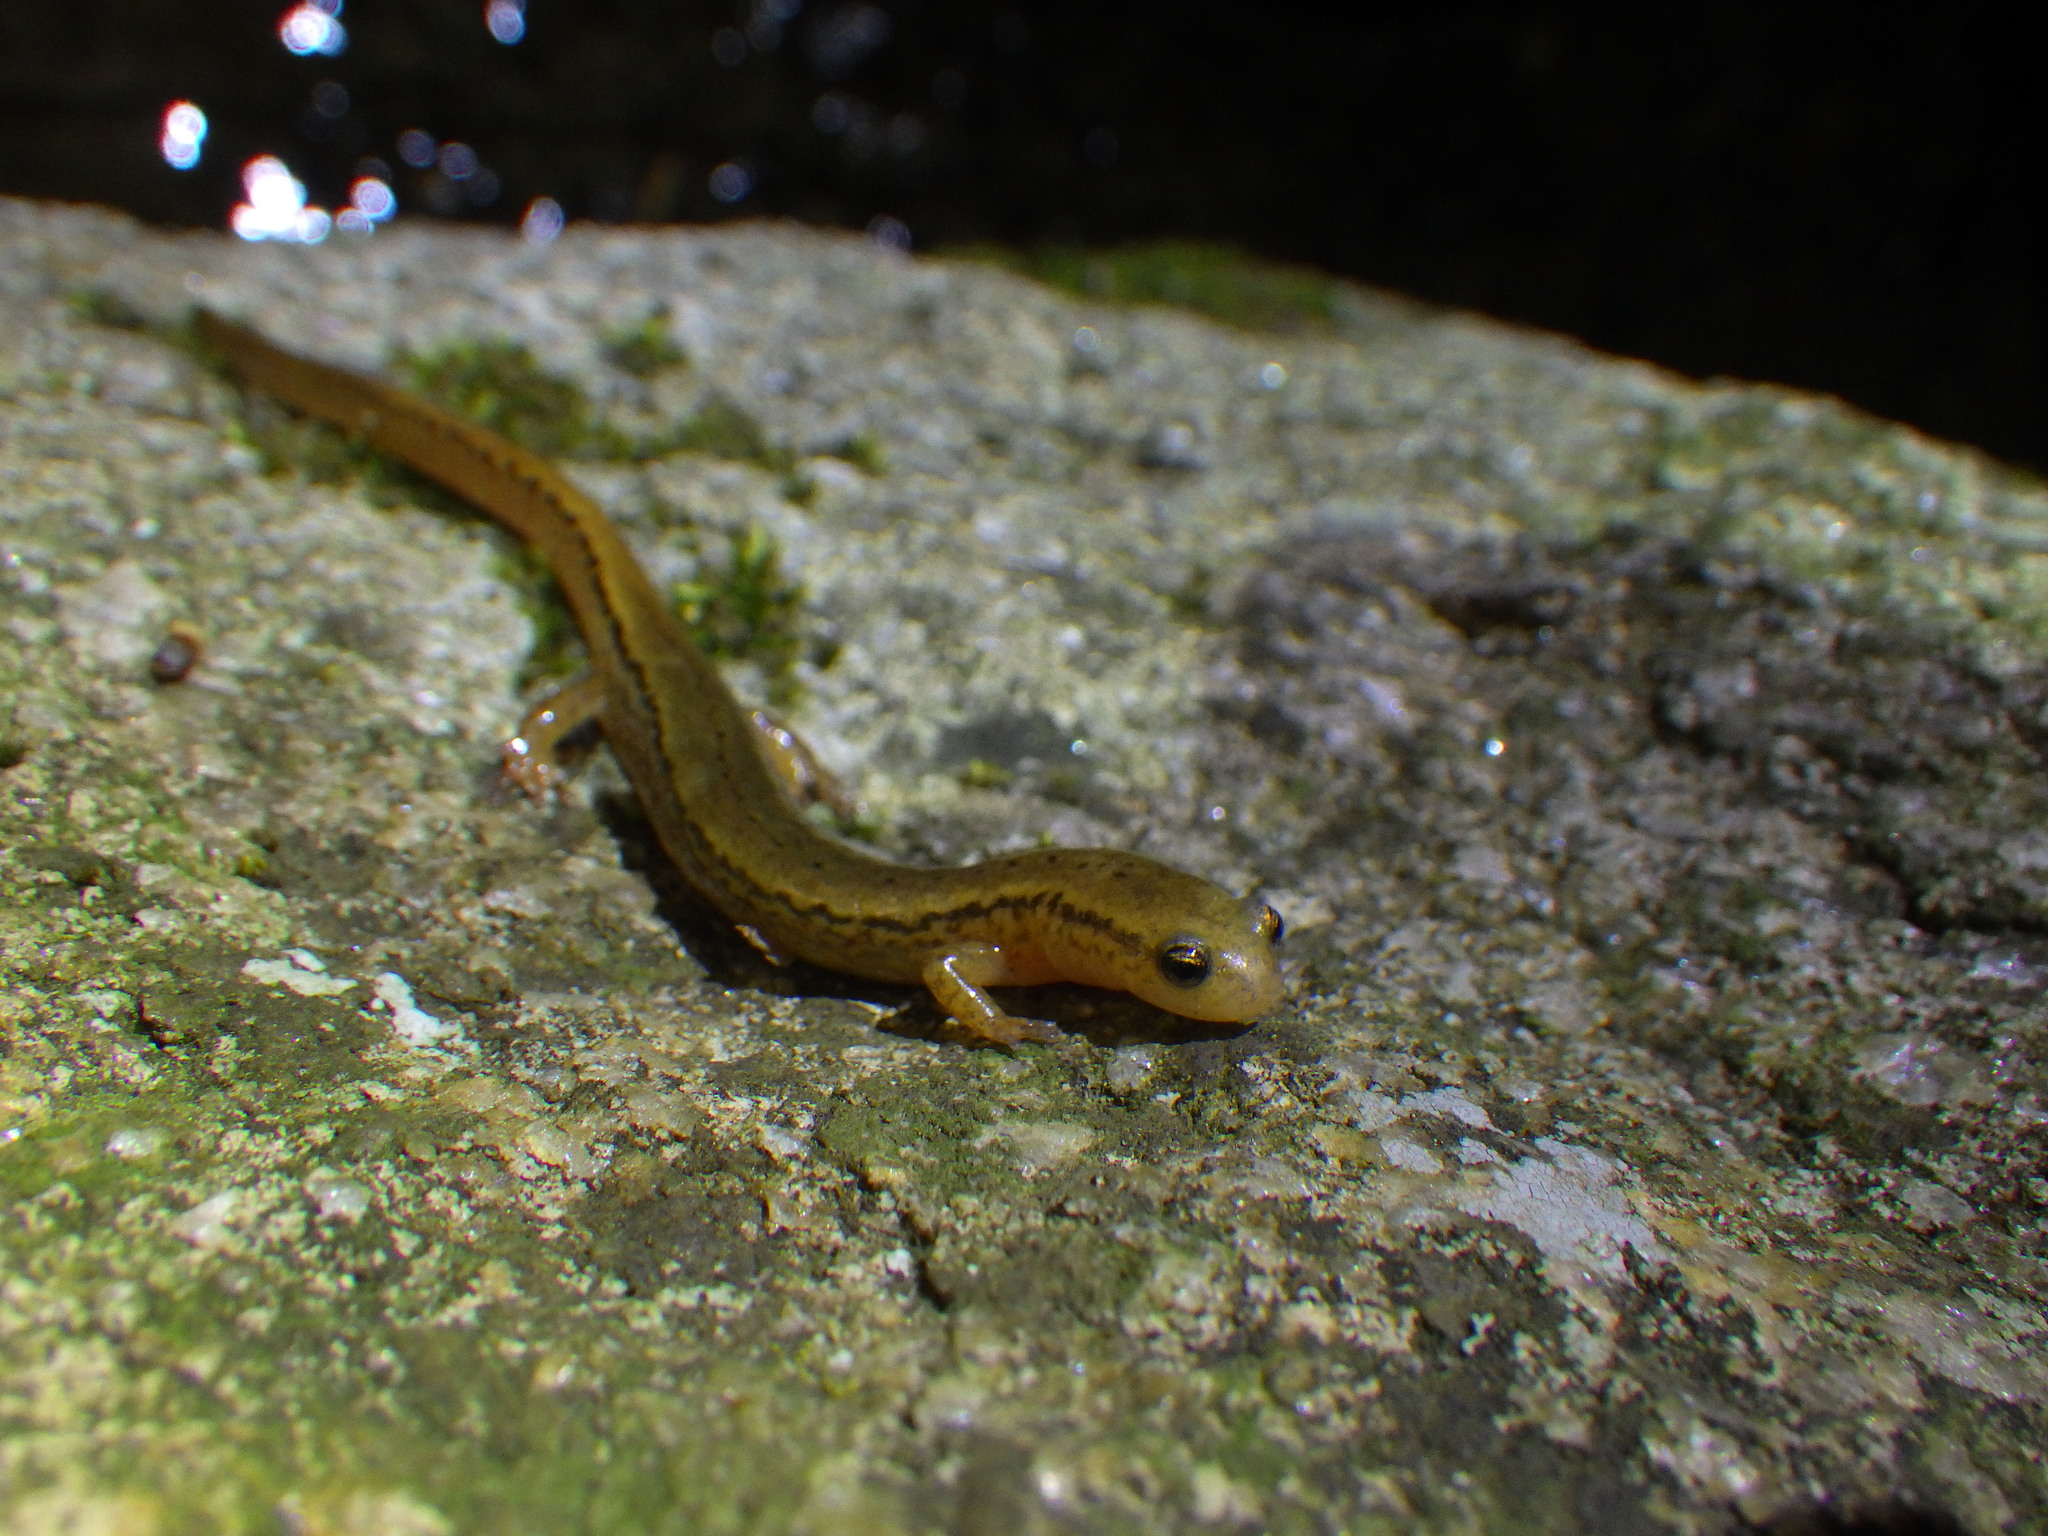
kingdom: Animalia
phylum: Chordata
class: Amphibia
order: Caudata
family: Plethodontidae
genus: Eurycea
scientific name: Eurycea bislineata
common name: Northern two-lined salamander
